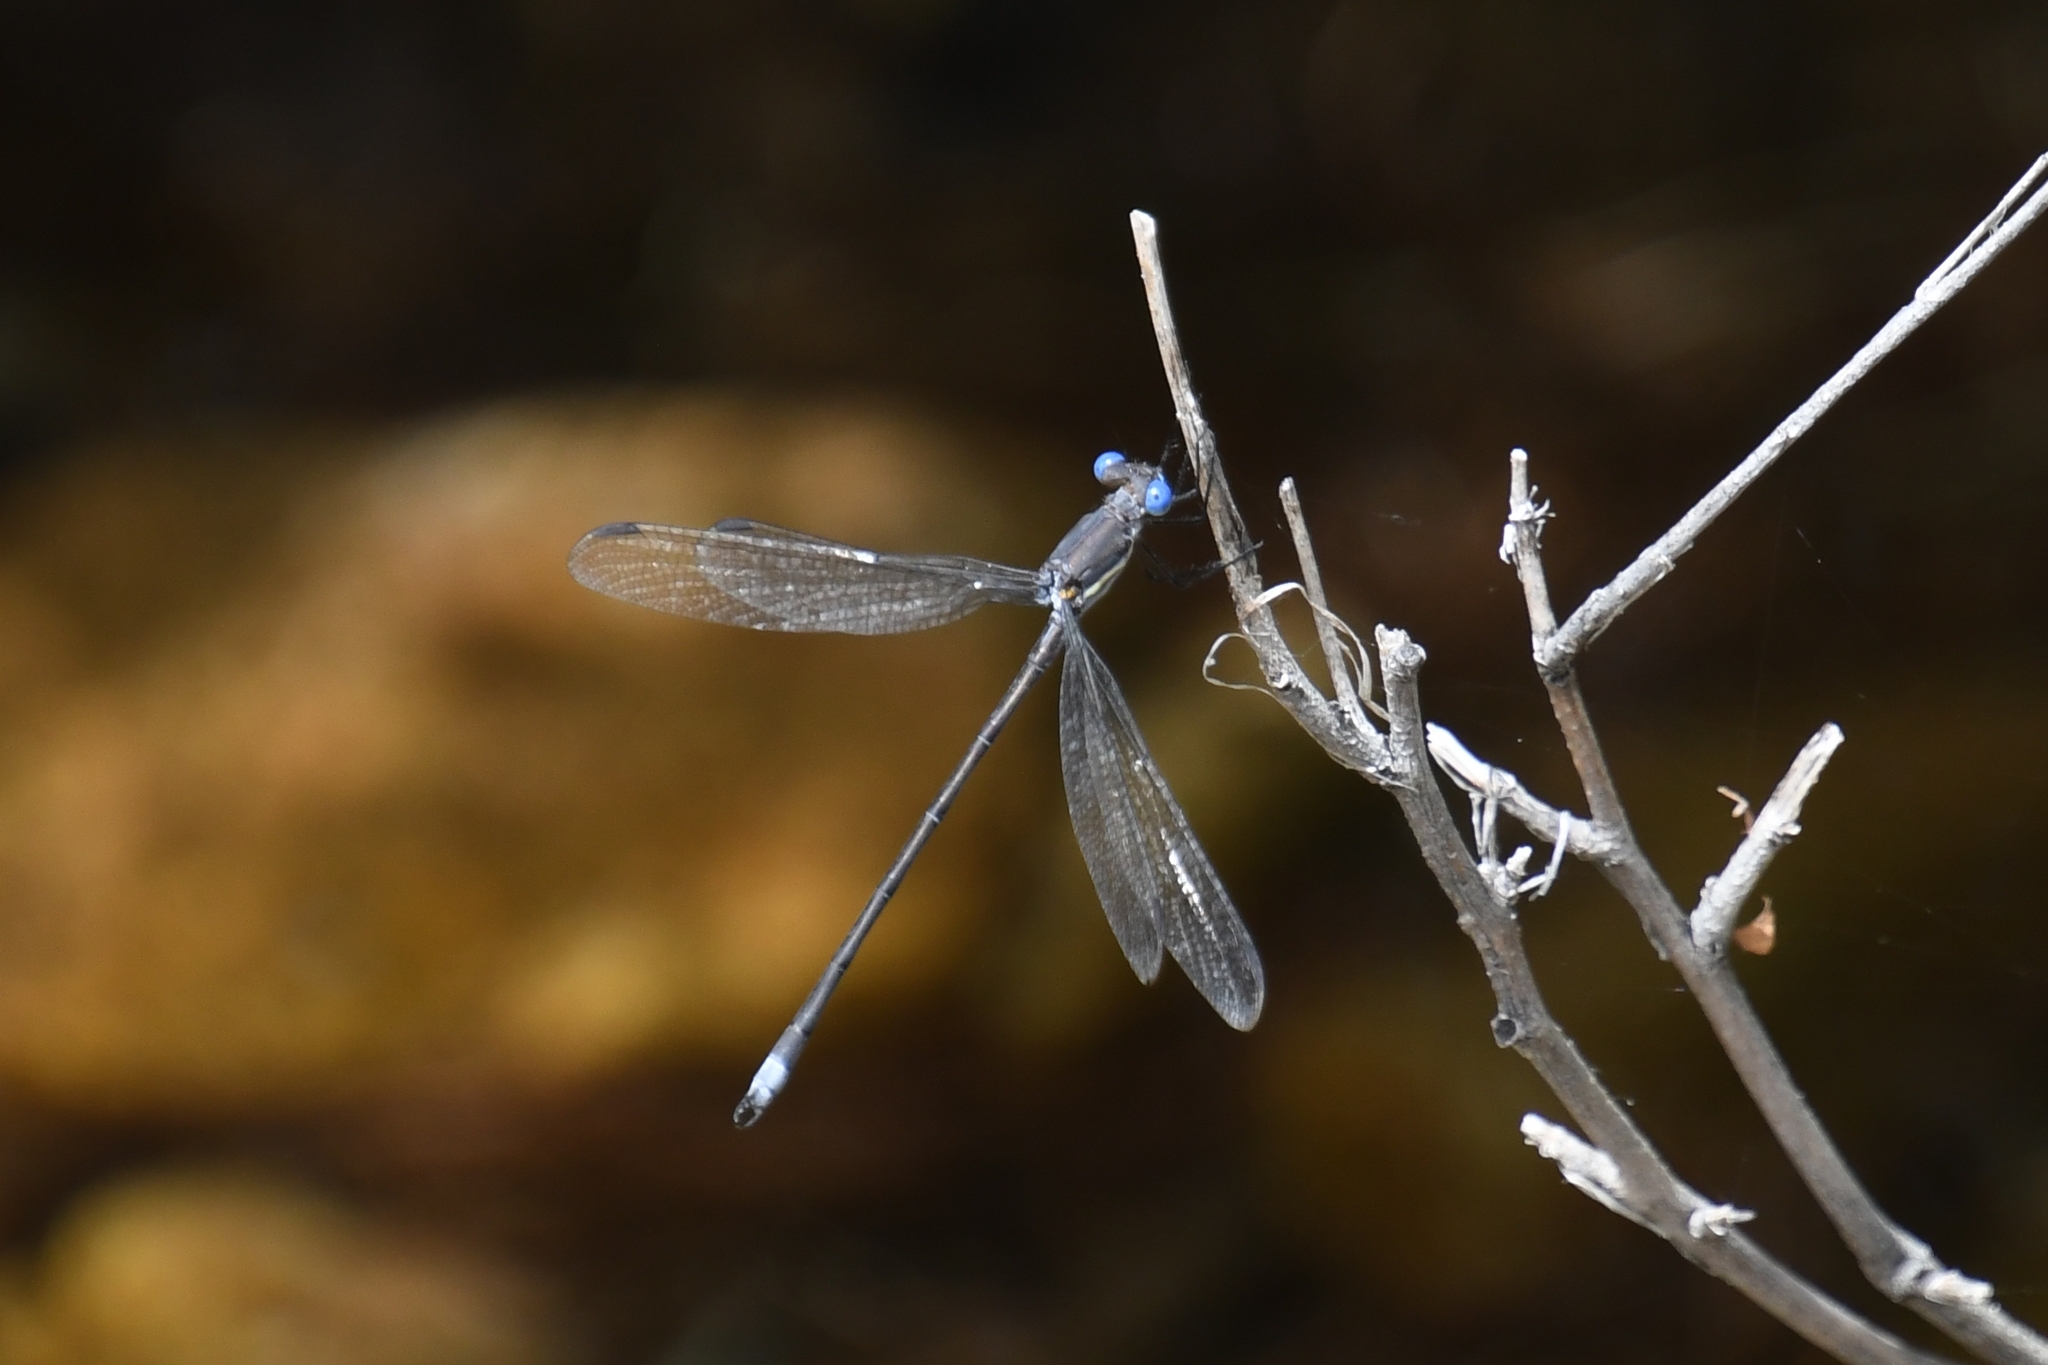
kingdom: Animalia
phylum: Arthropoda
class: Insecta
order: Odonata
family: Lestidae
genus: Archilestes
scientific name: Archilestes grandis
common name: Great spreadwing
